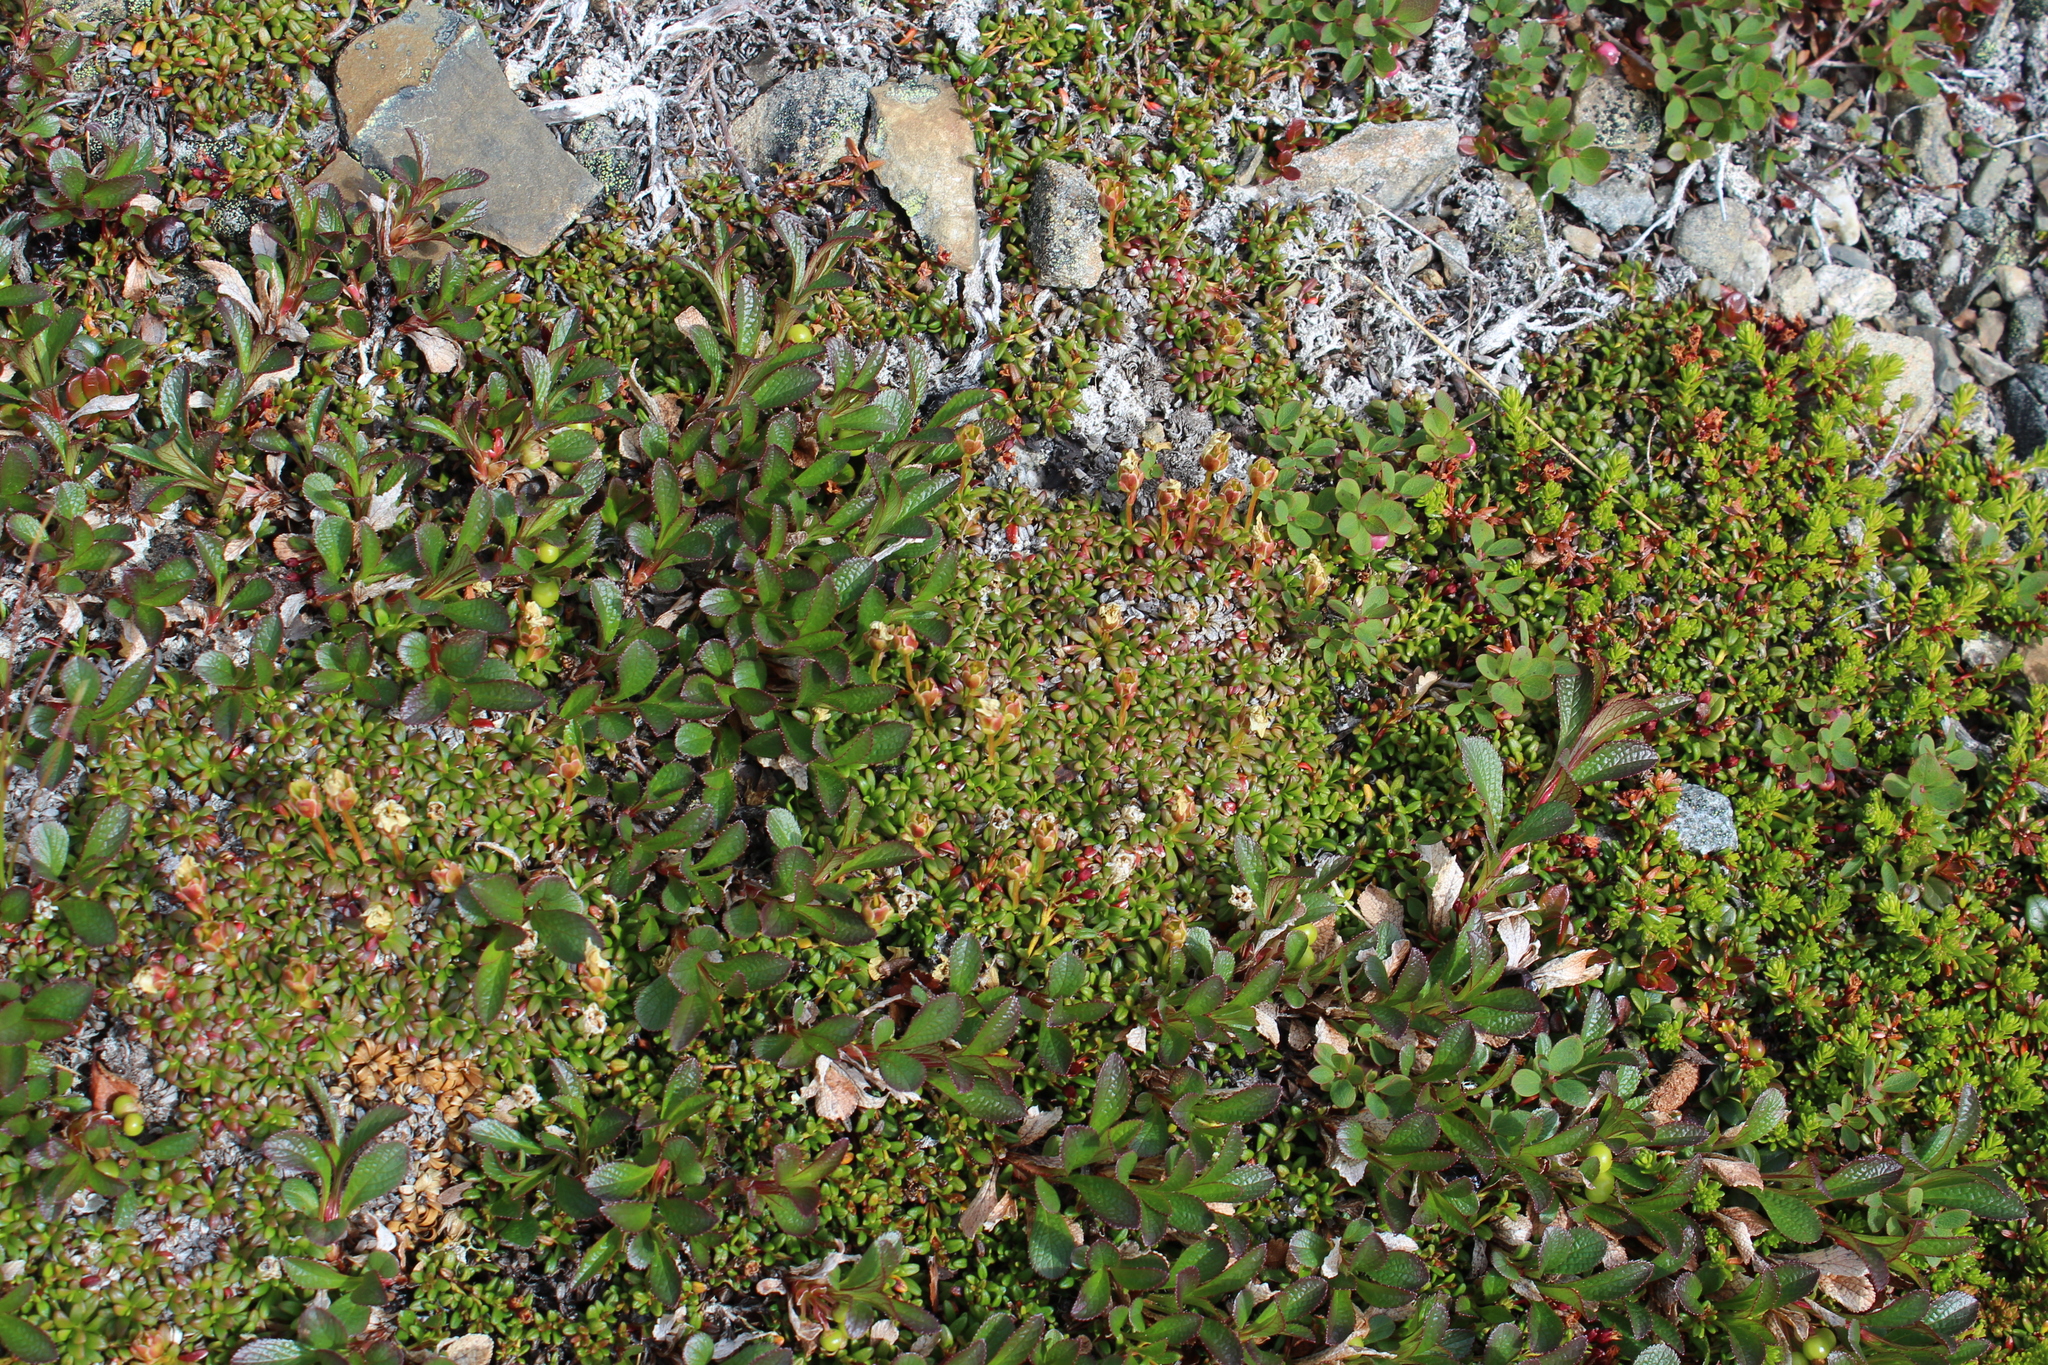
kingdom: Plantae
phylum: Tracheophyta
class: Magnoliopsida
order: Ericales
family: Ericaceae
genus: Arctostaphylos
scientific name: Arctostaphylos alpinus
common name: Alpine bearberry
